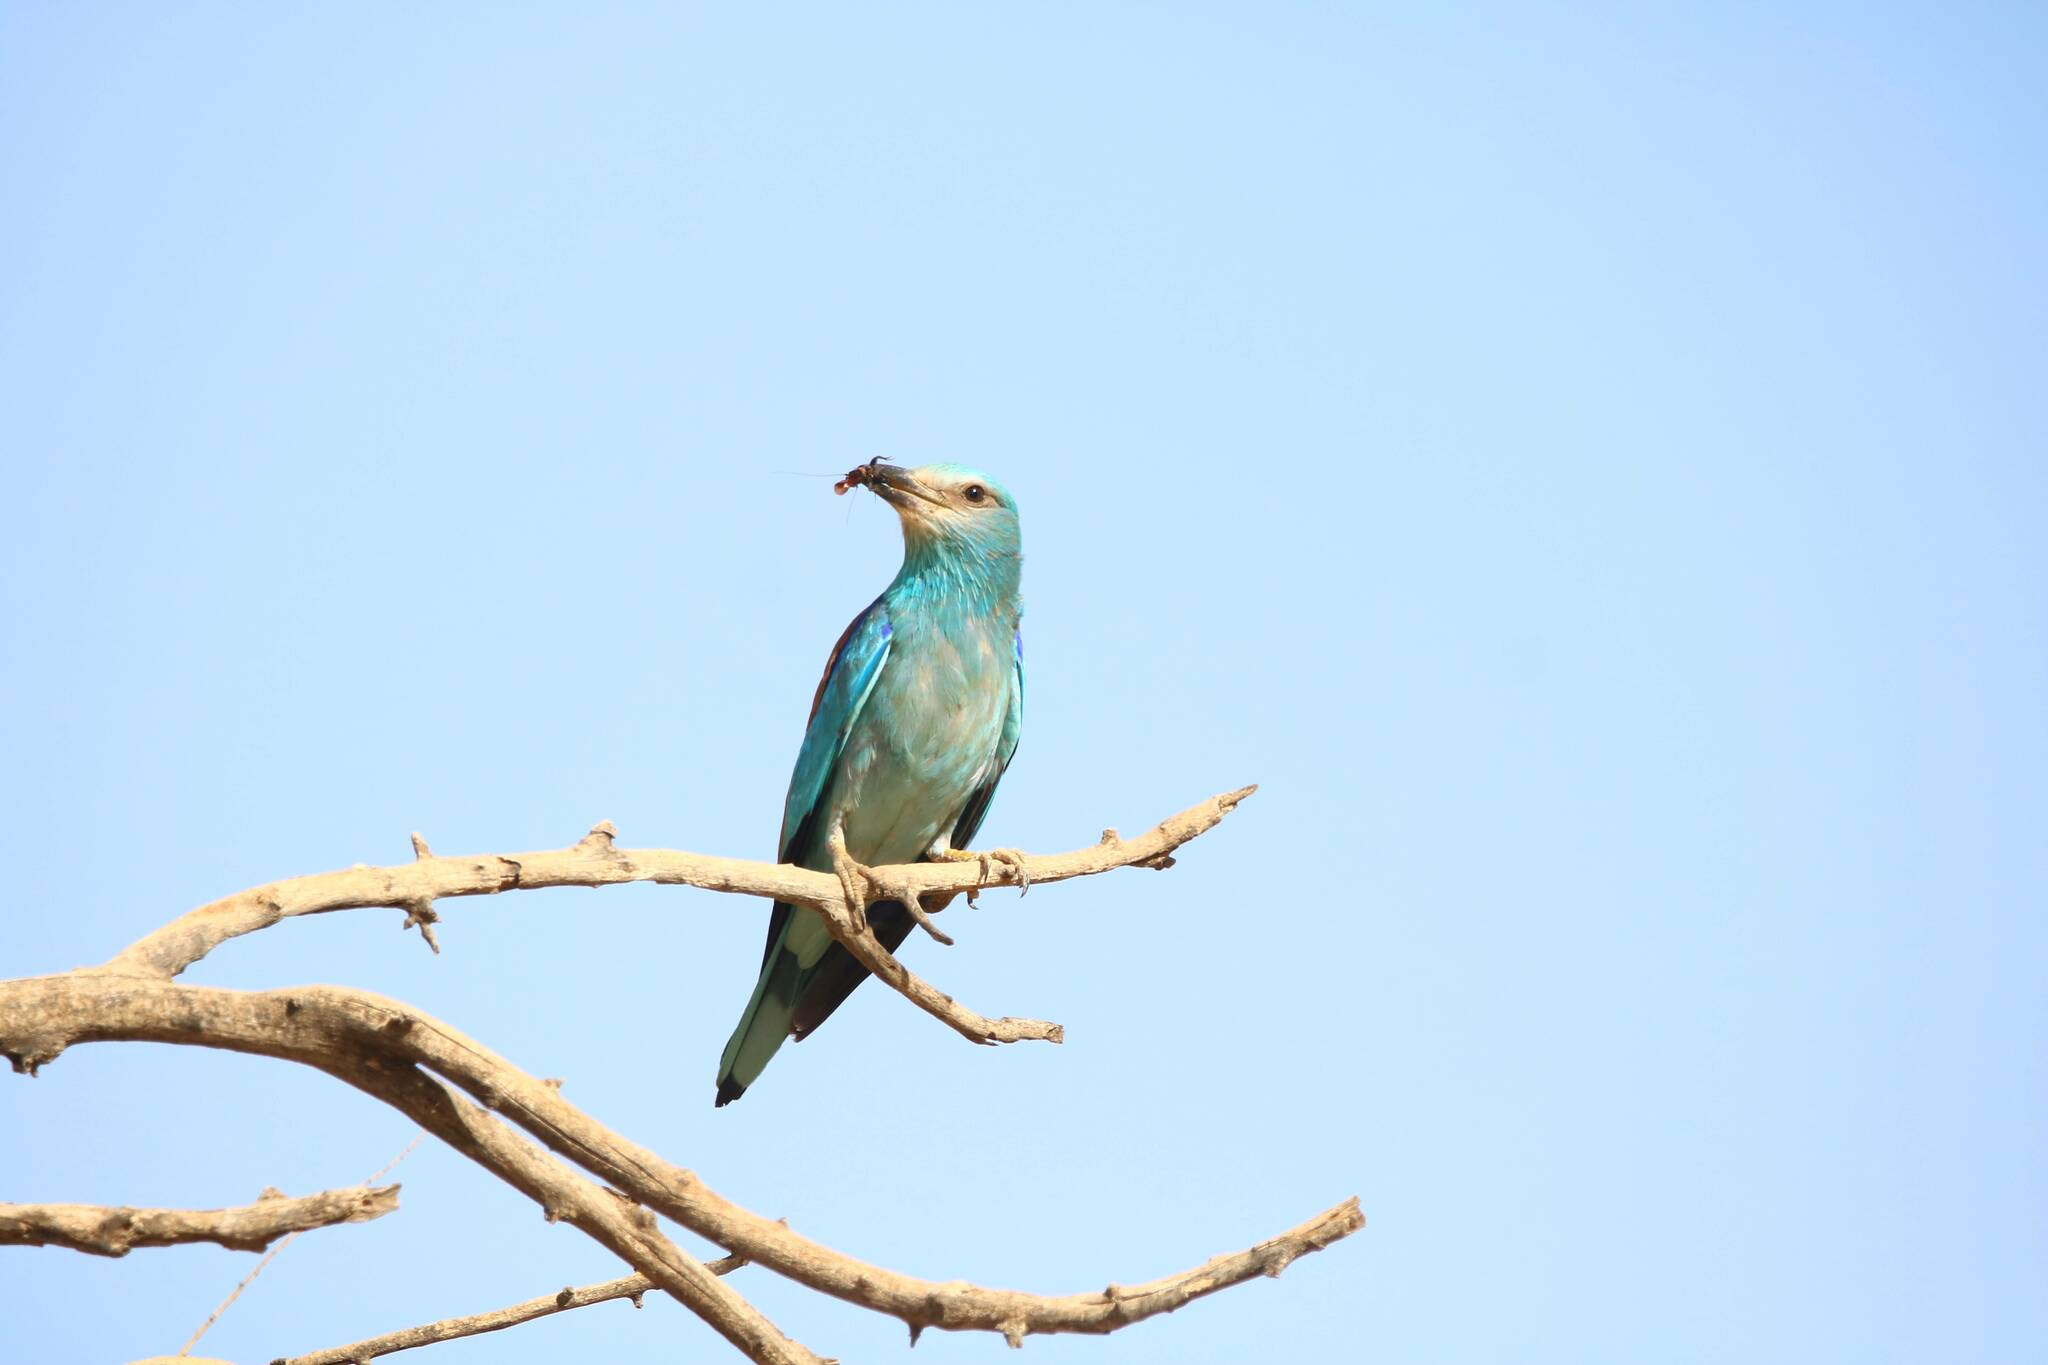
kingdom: Animalia
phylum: Chordata
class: Aves
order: Coraciiformes
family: Coraciidae
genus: Coracias
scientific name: Coracias garrulus
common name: European roller
